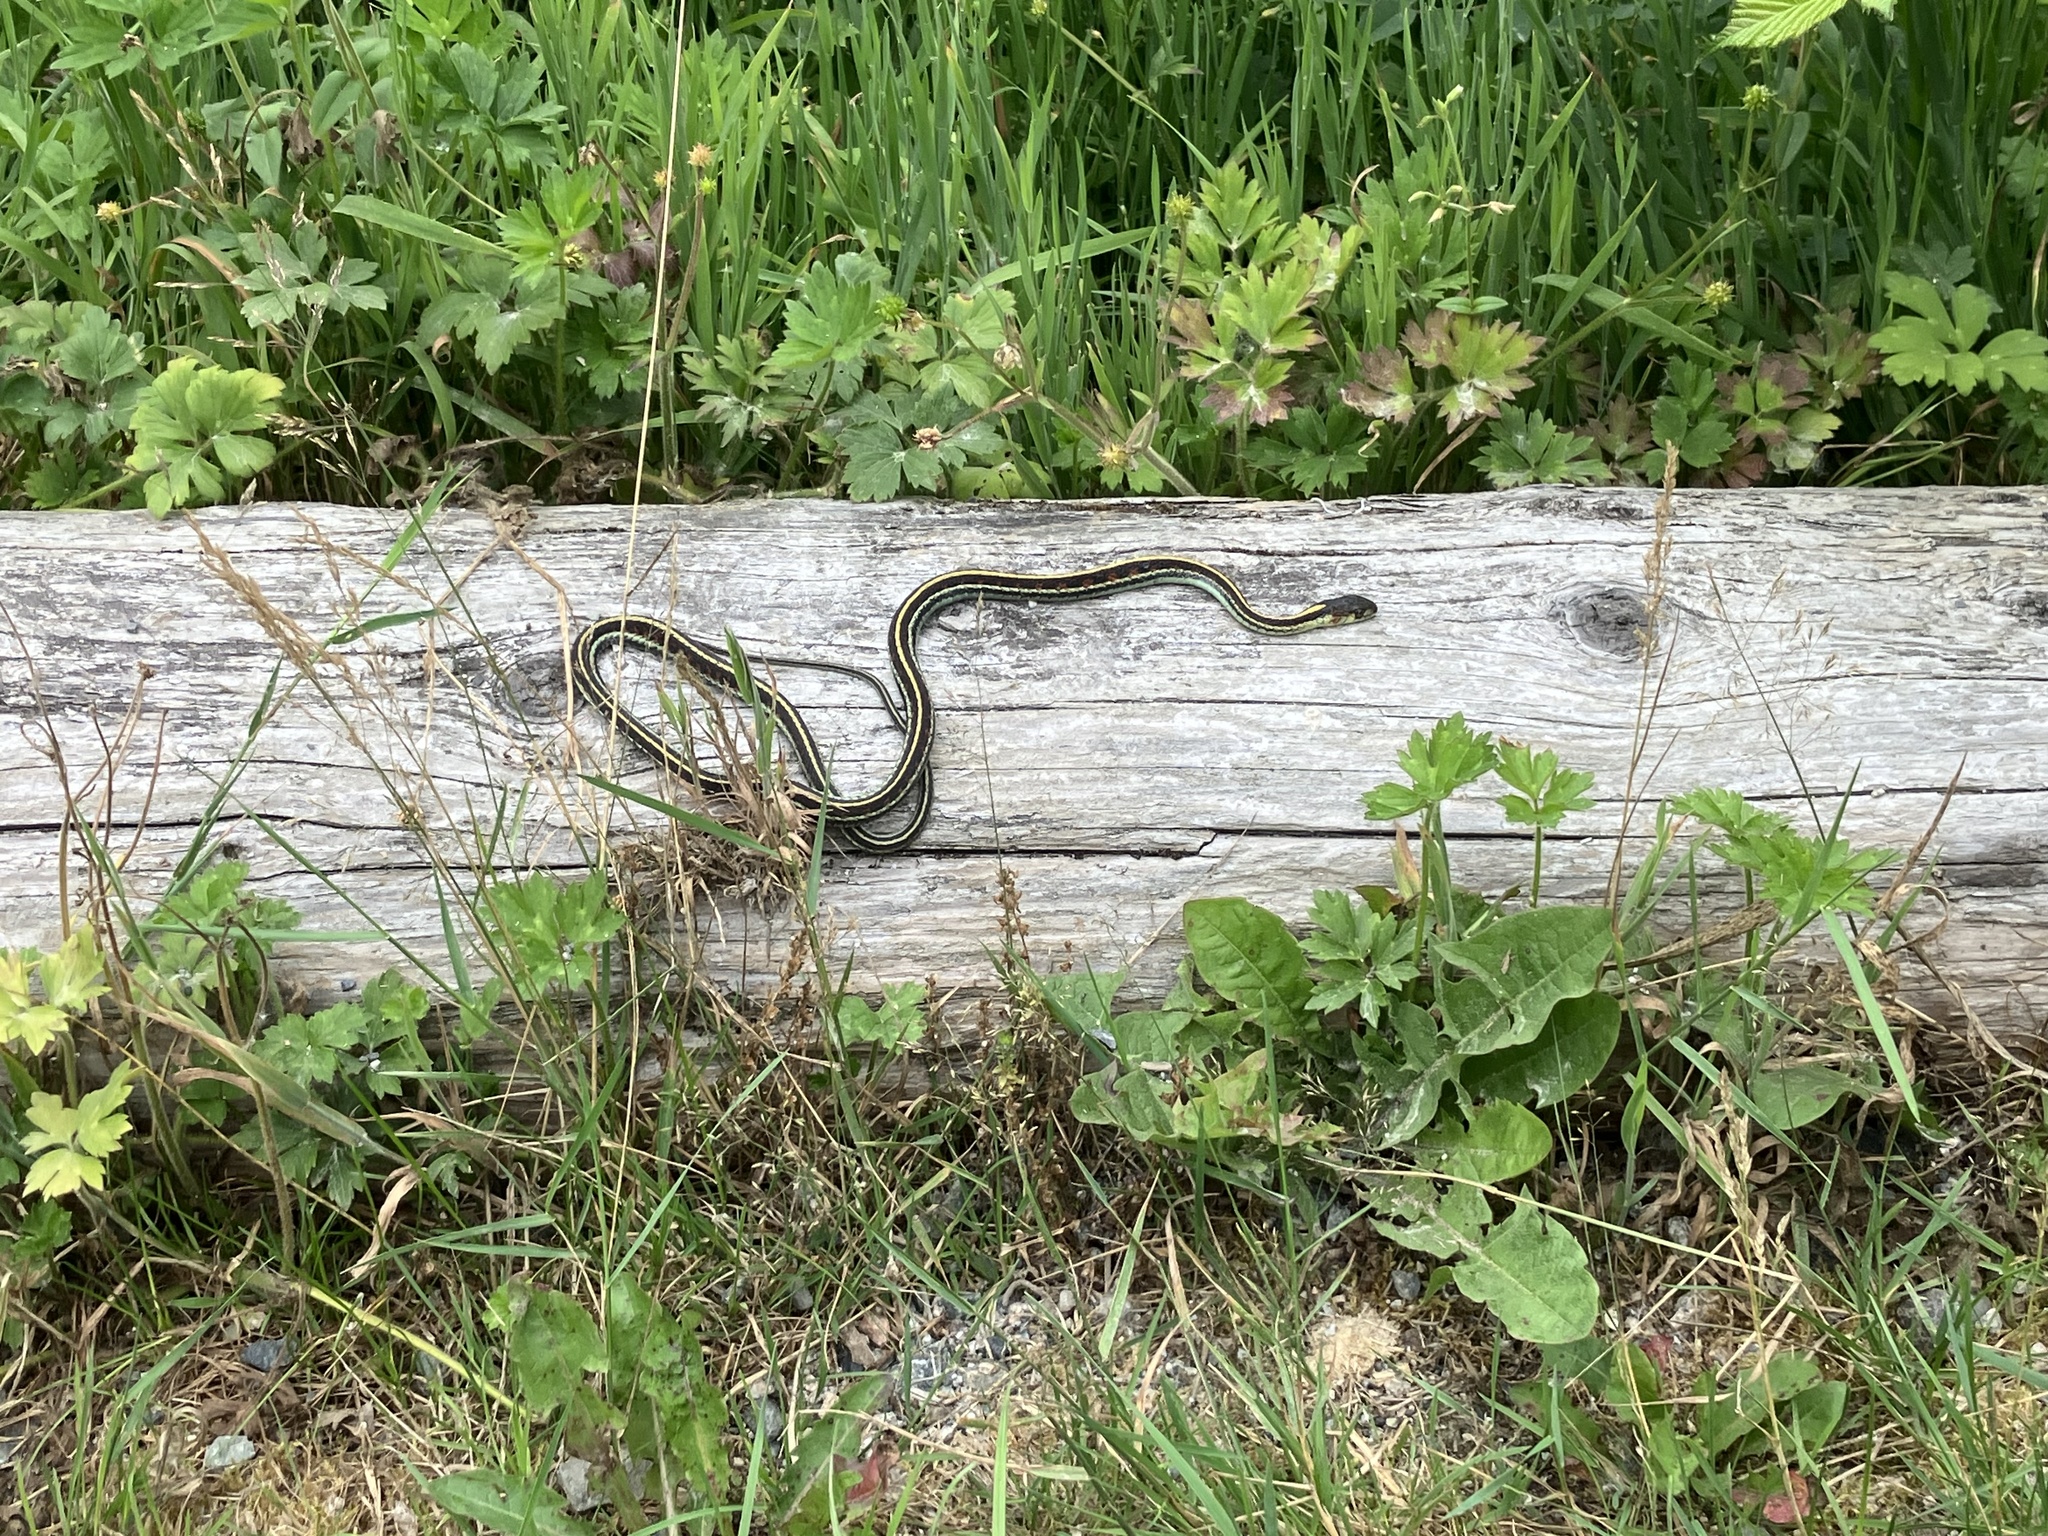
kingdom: Animalia
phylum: Chordata
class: Squamata
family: Colubridae
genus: Thamnophis
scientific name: Thamnophis sirtalis
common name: Common garter snake
